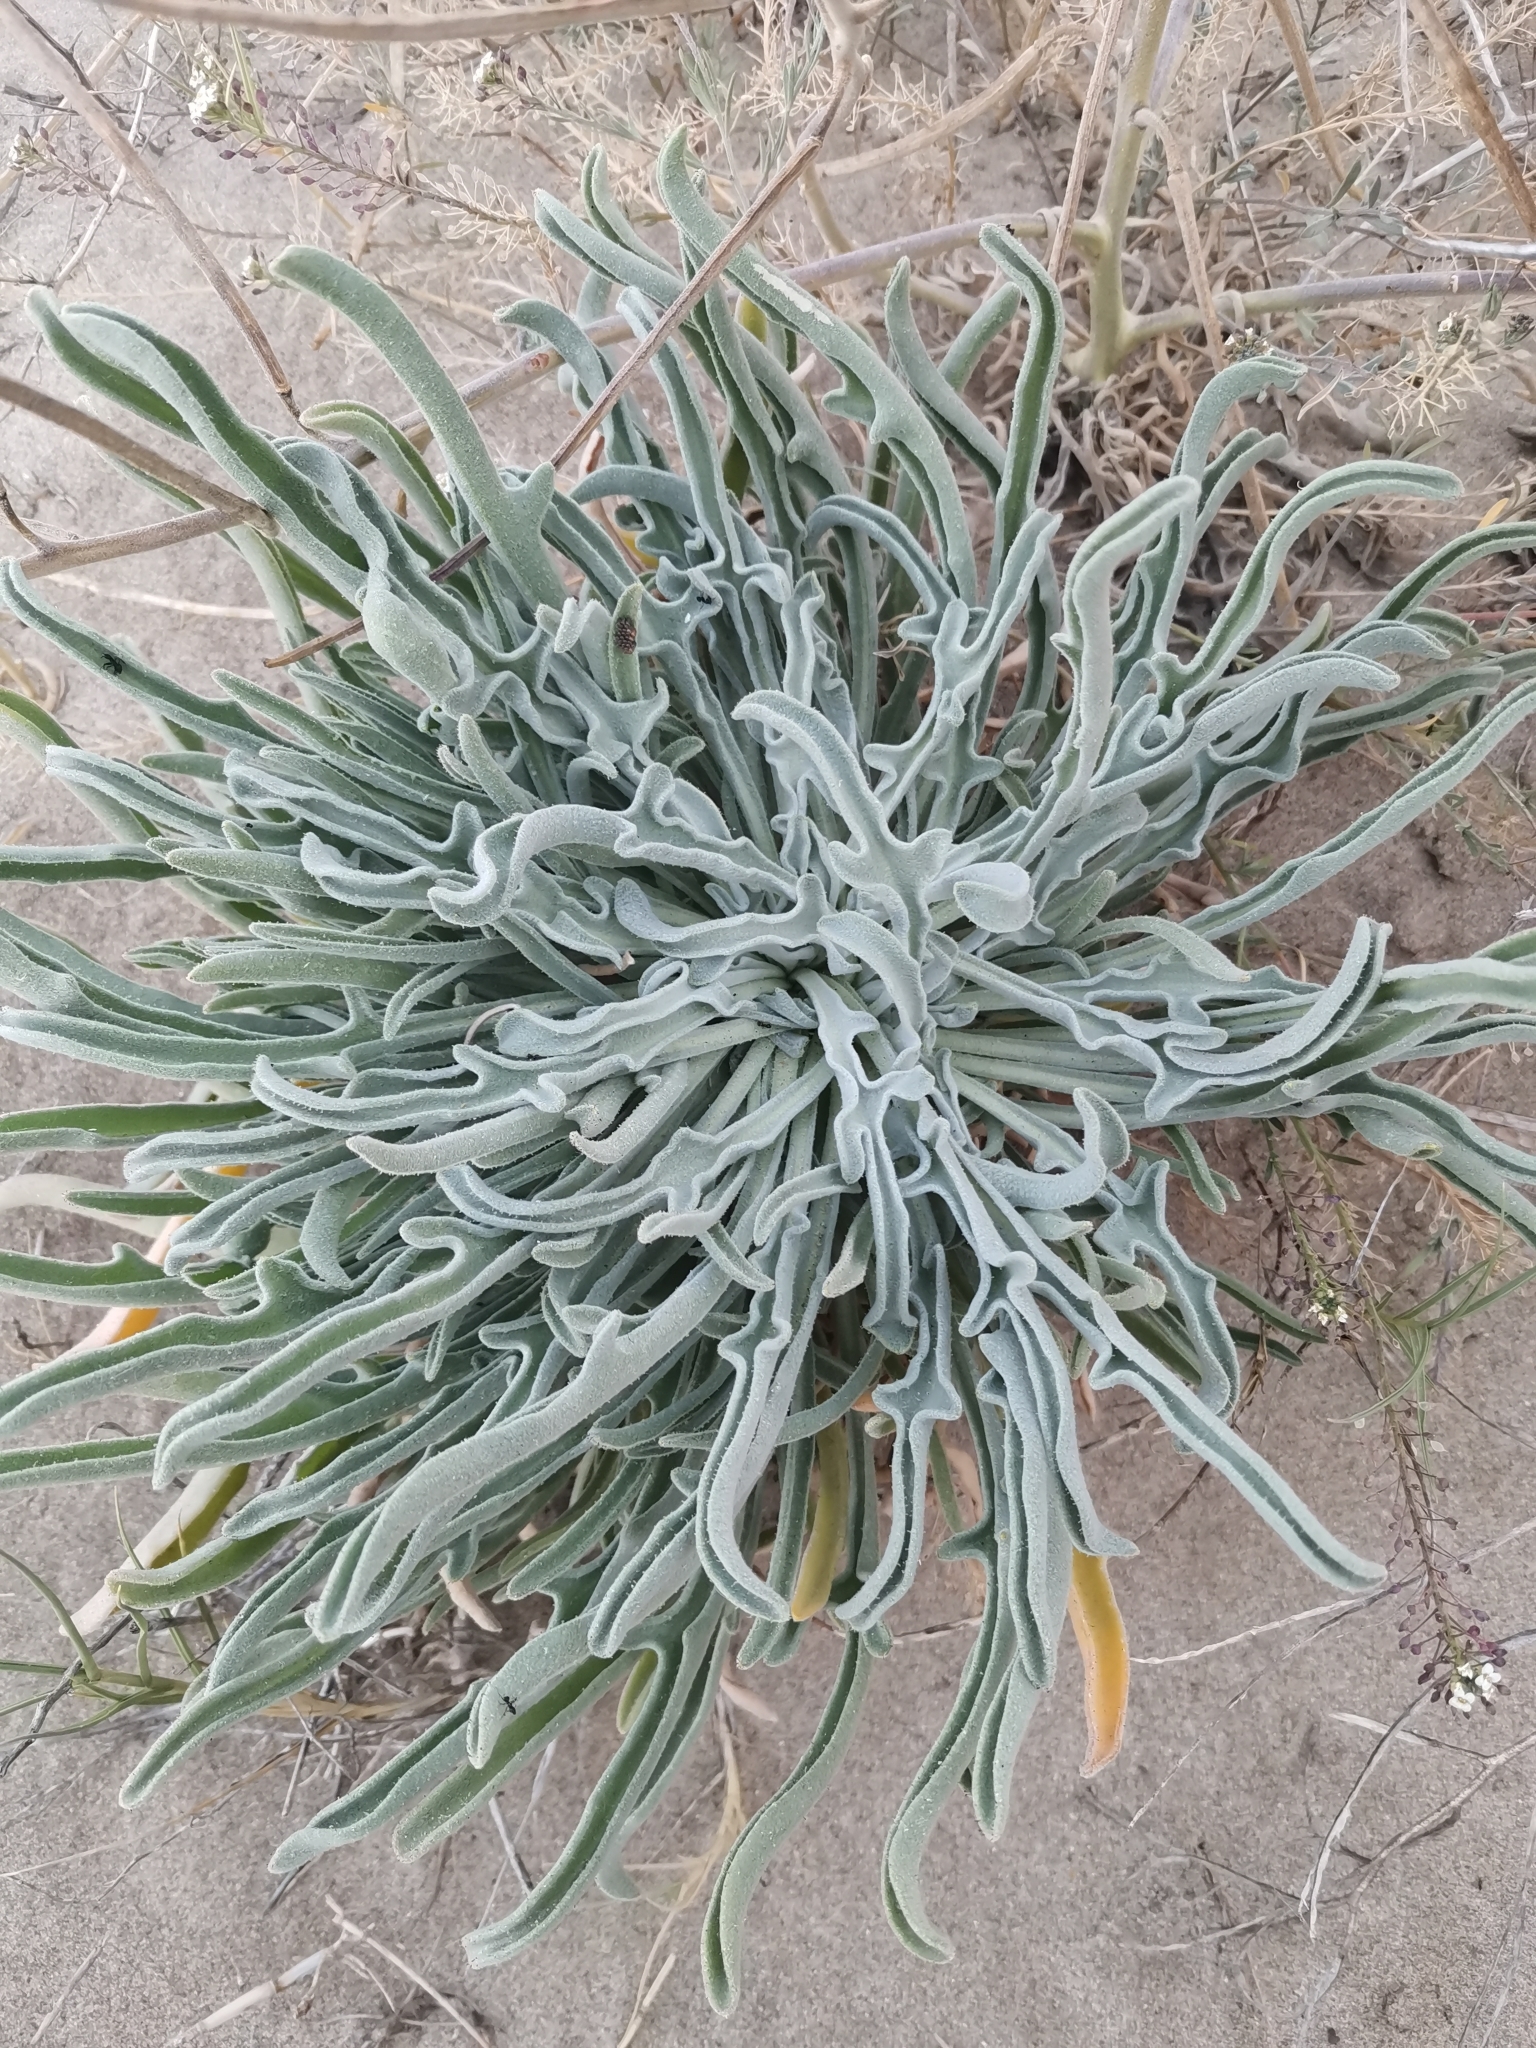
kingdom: Plantae
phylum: Tracheophyta
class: Magnoliopsida
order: Brassicales
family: Brassicaceae
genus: Matthiola
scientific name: Matthiola sinuata
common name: Sea stock
